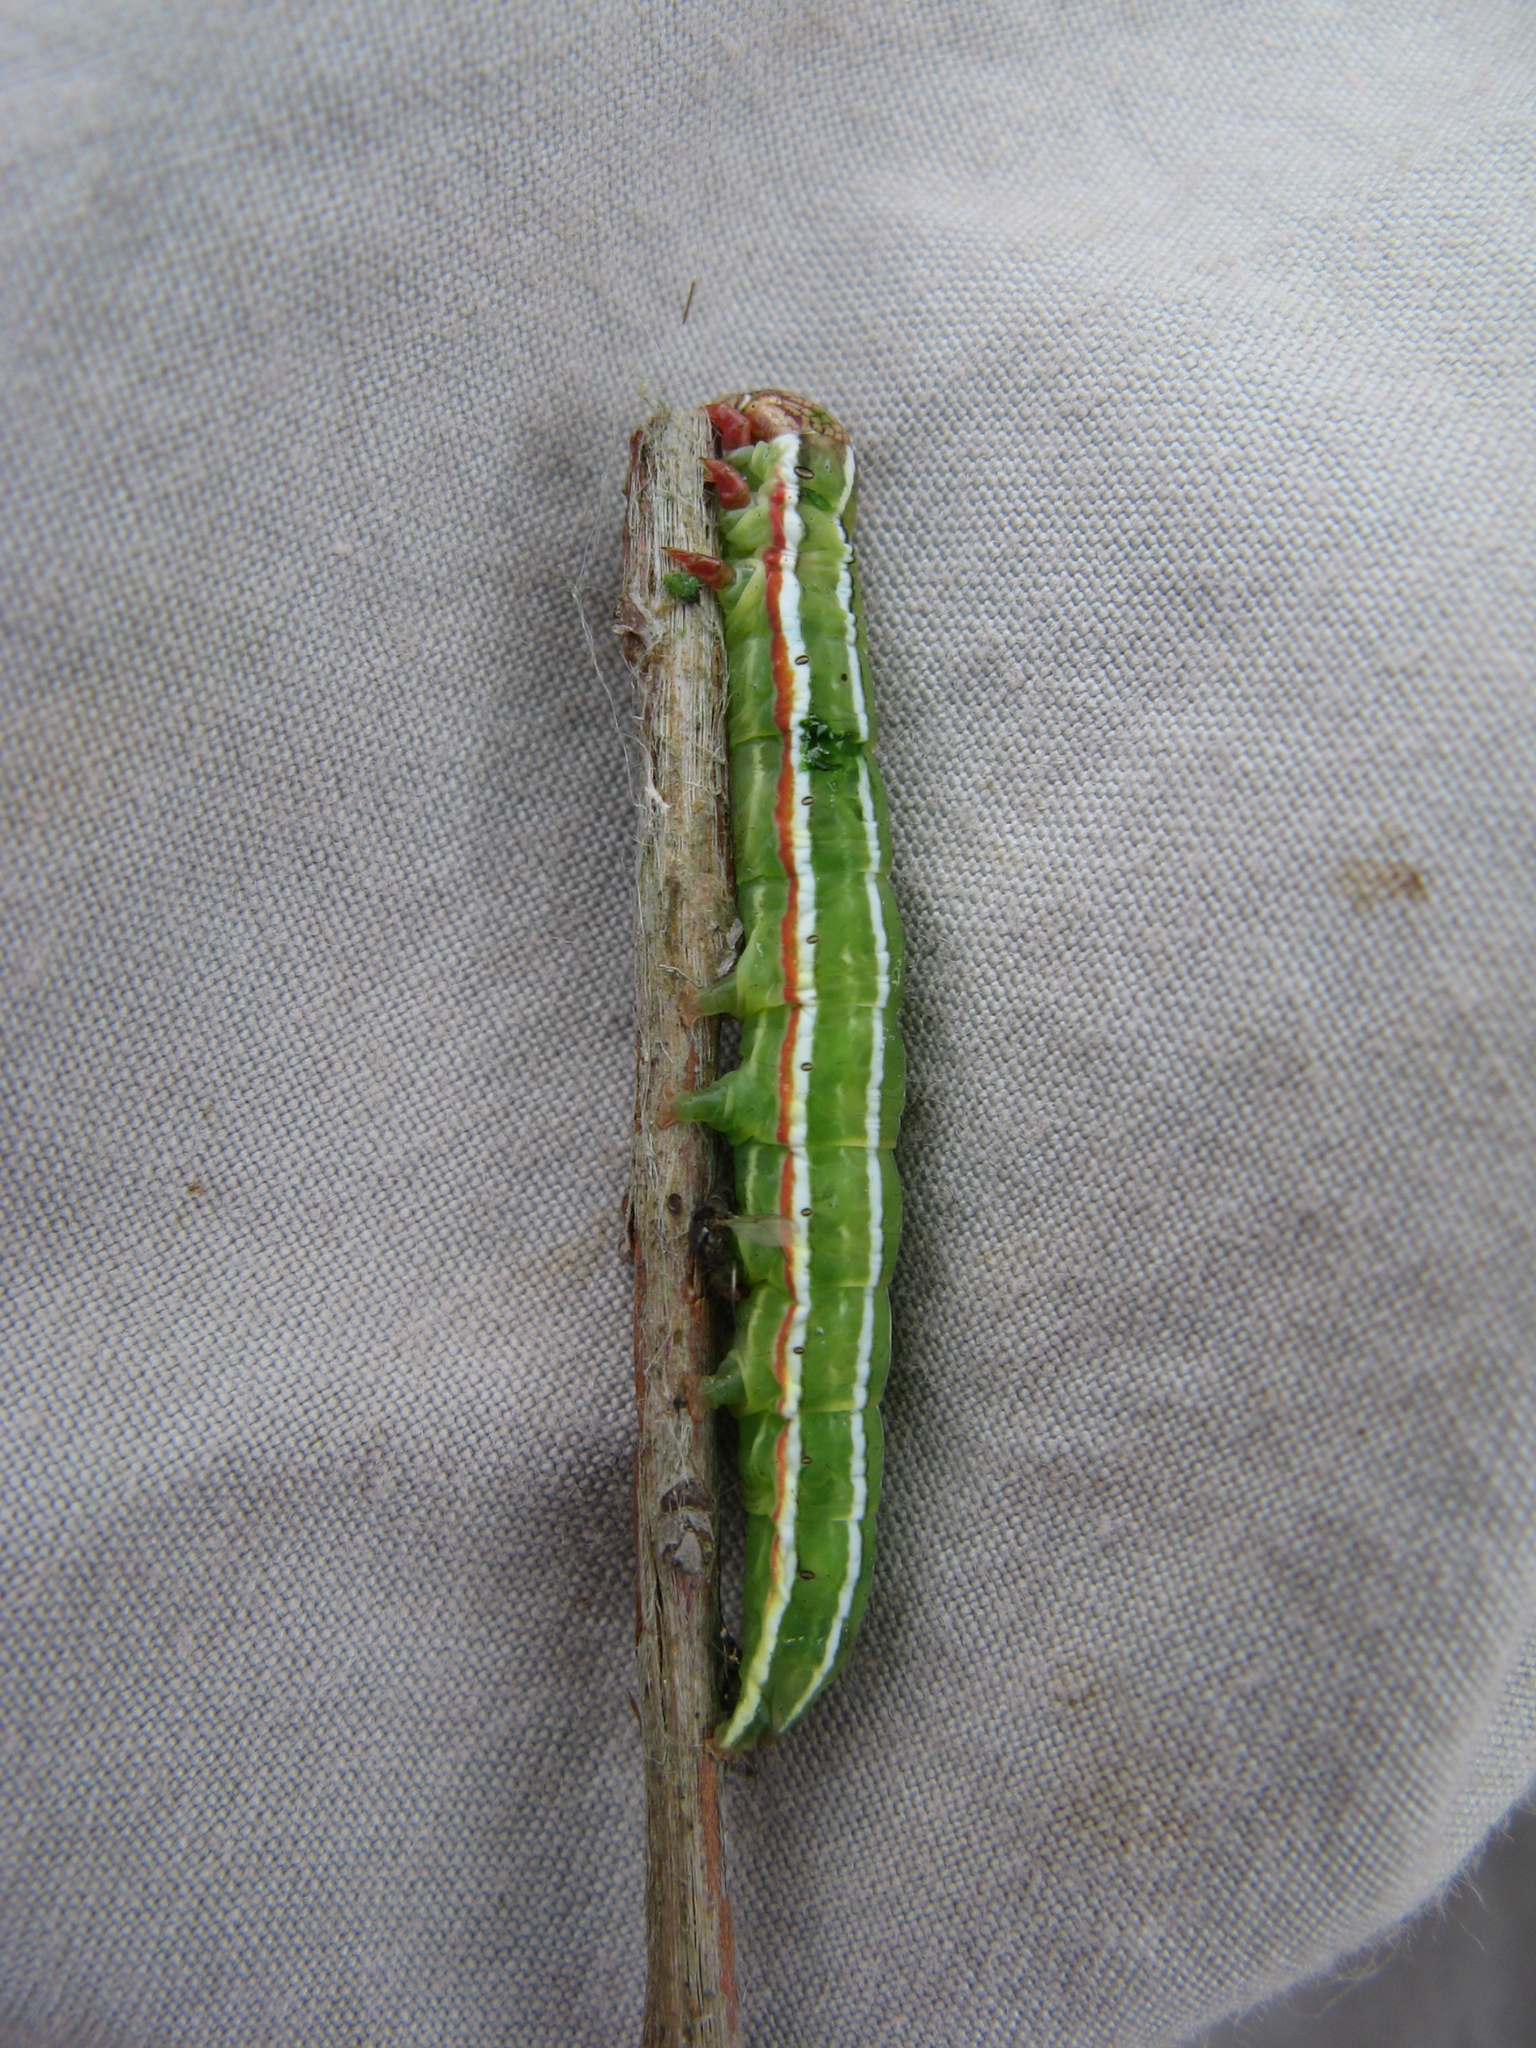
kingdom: Animalia
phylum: Arthropoda
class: Insecta
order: Lepidoptera
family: Noctuidae
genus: Panolis
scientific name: Panolis flammea
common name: Pine beauty
